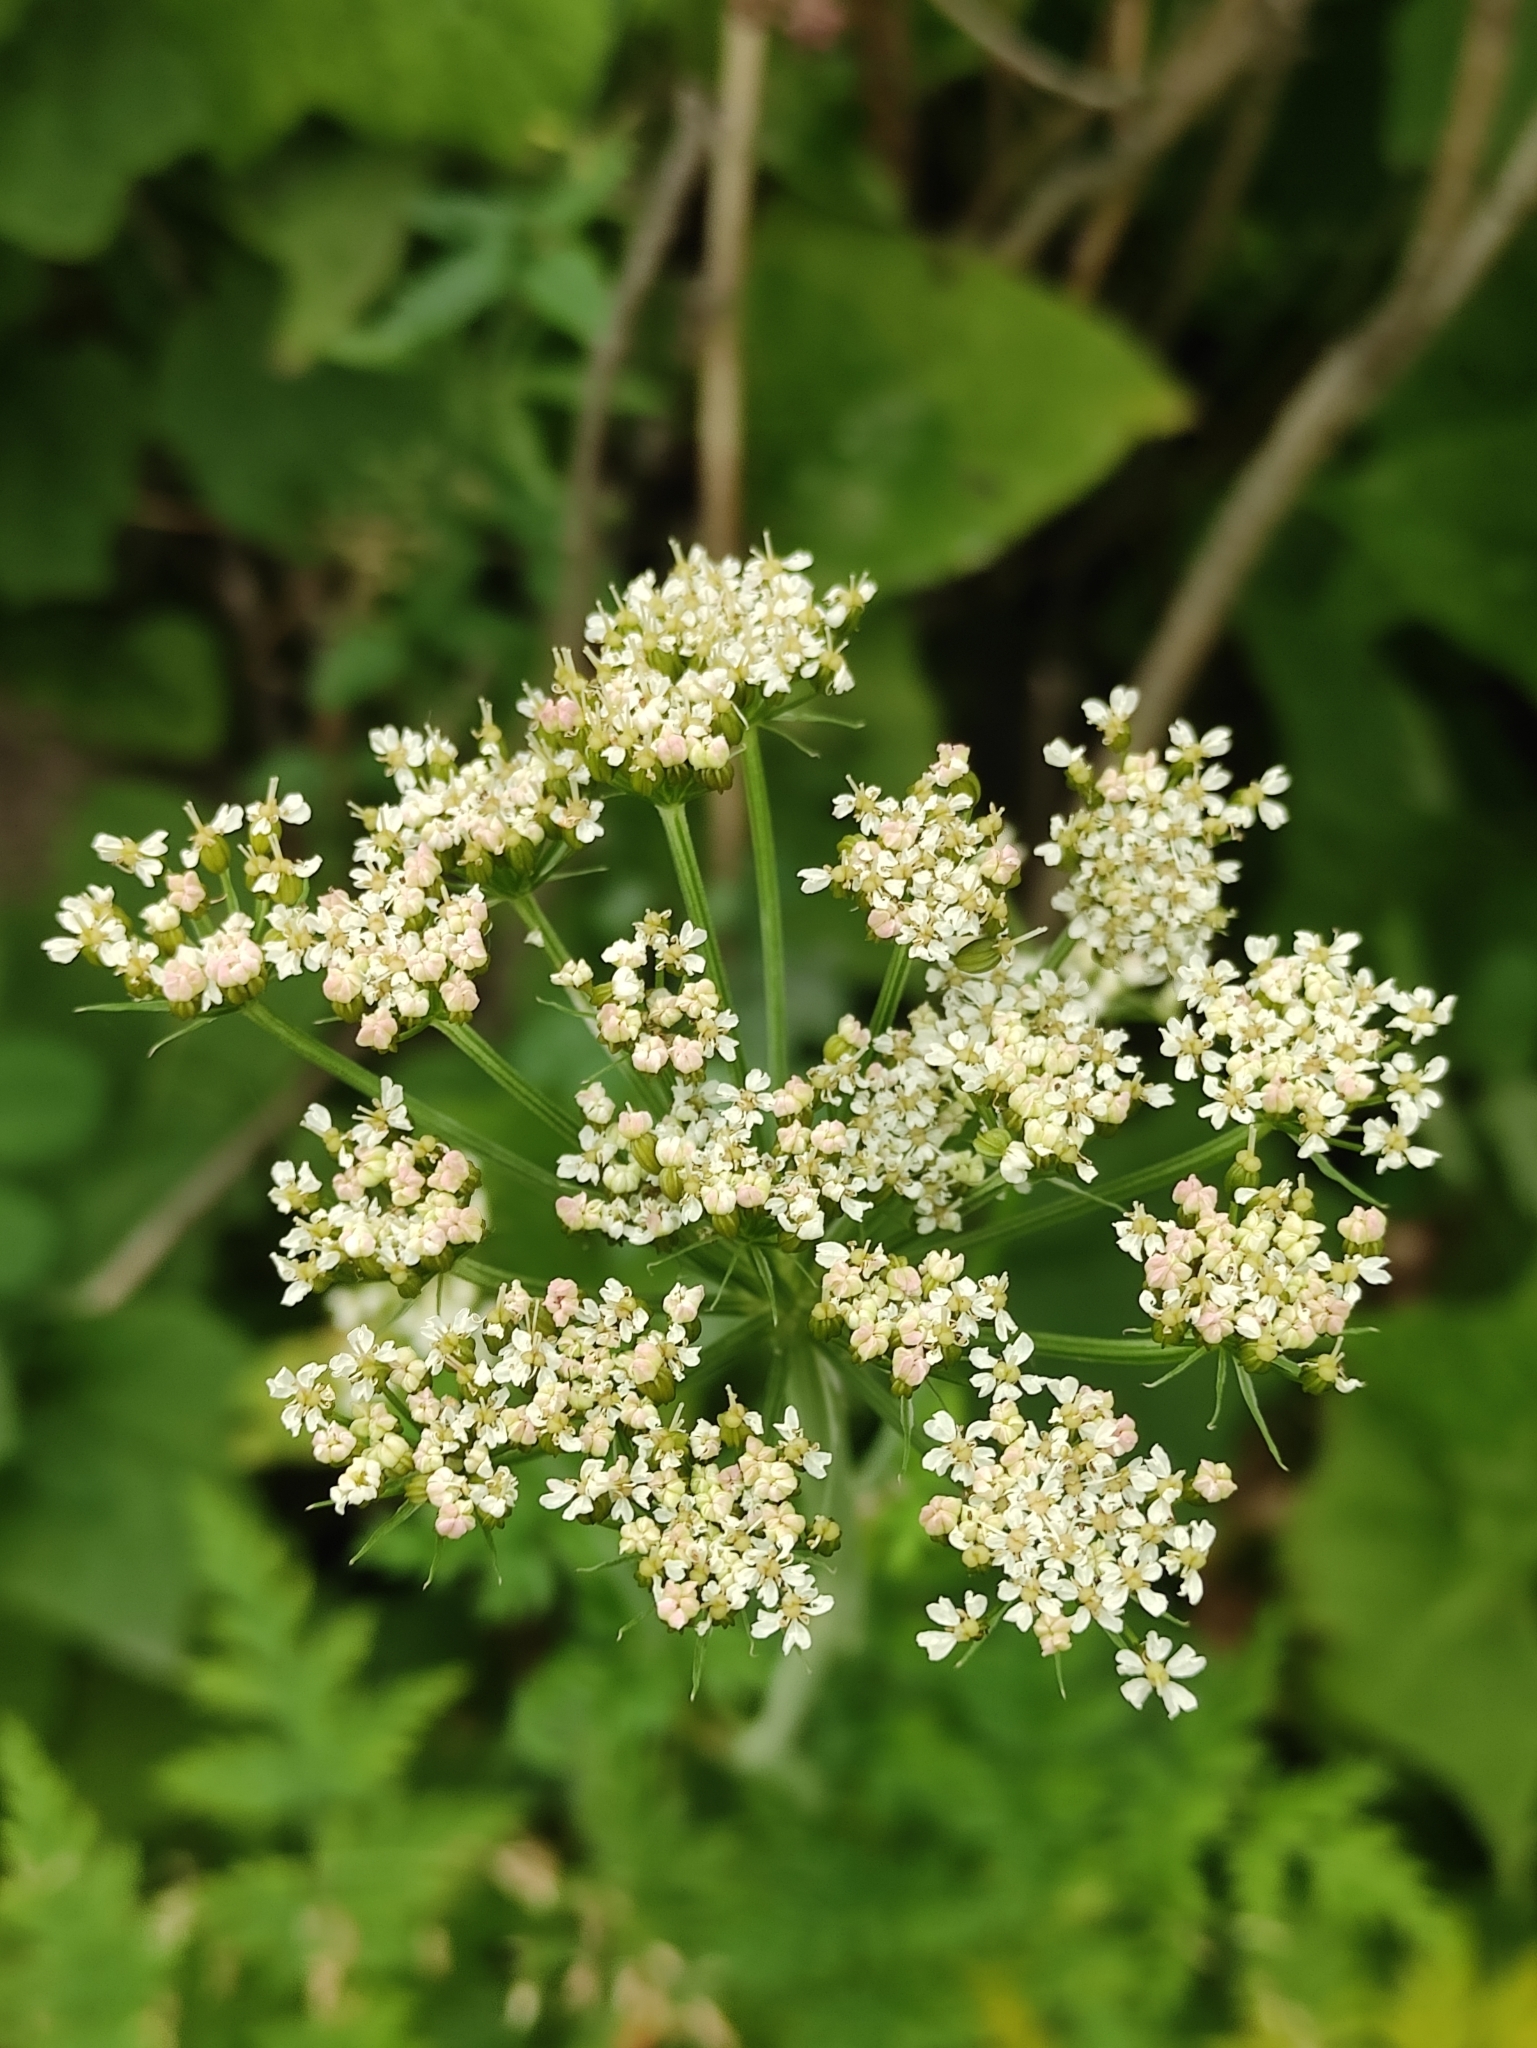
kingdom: Plantae
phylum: Tracheophyta
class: Magnoliopsida
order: Apiales
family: Apiaceae
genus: Conioselinum
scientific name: Conioselinum tataricum
